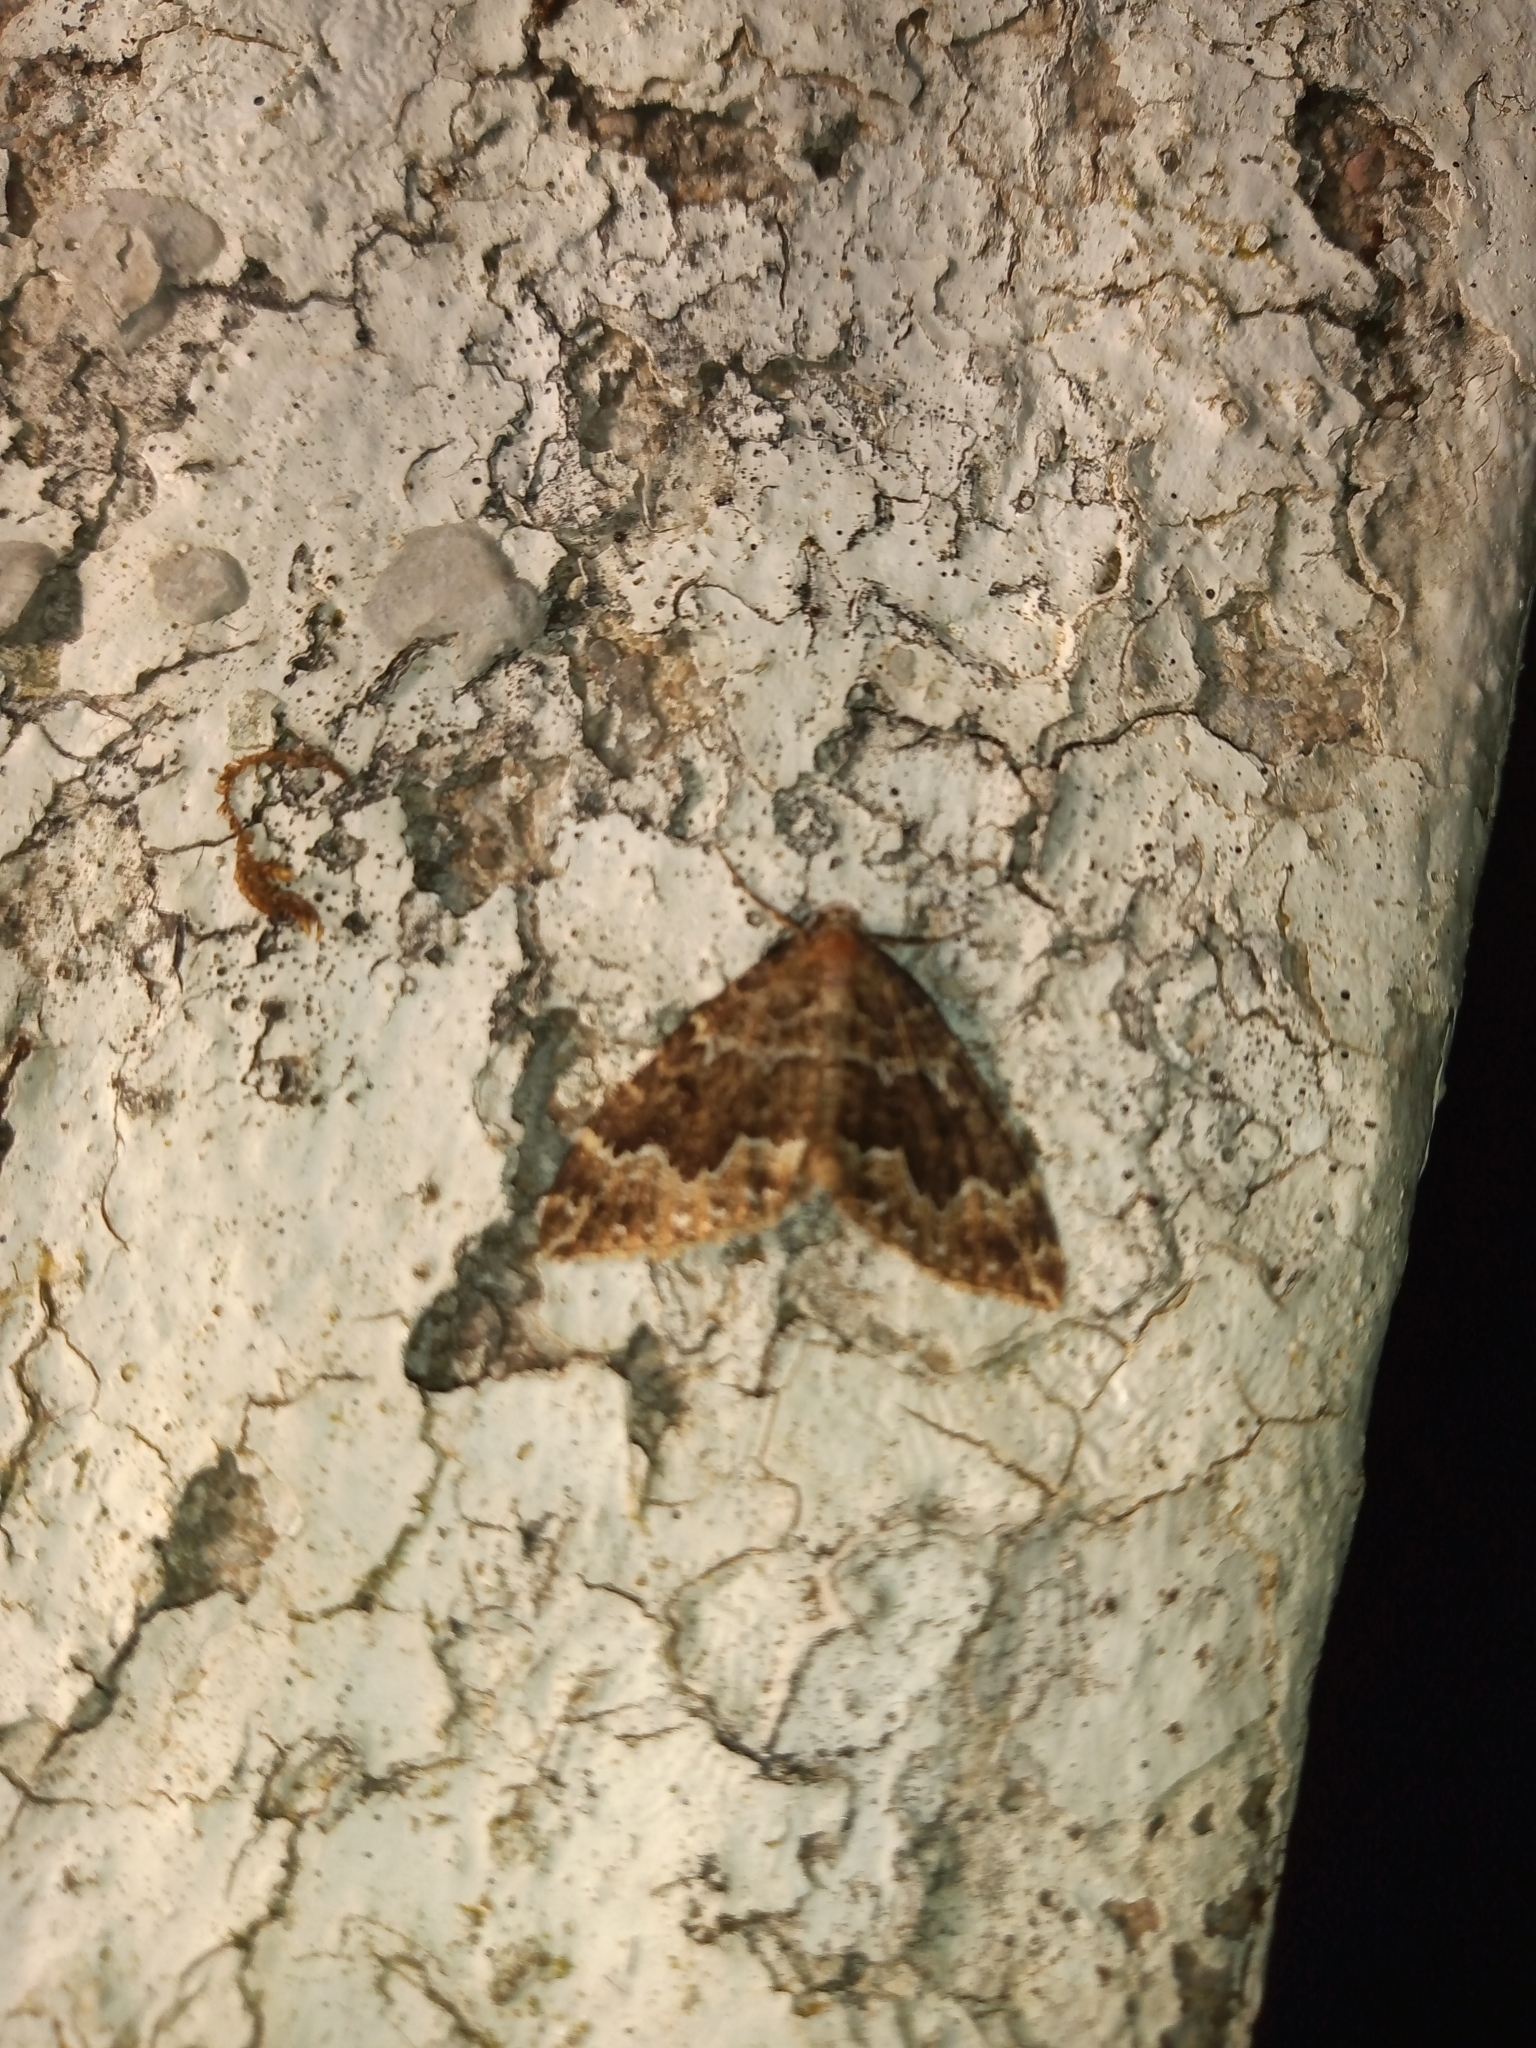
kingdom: Animalia
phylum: Arthropoda
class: Insecta
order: Lepidoptera
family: Geometridae
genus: Lampropteryx
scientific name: Lampropteryx suffumata
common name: Water carpet
